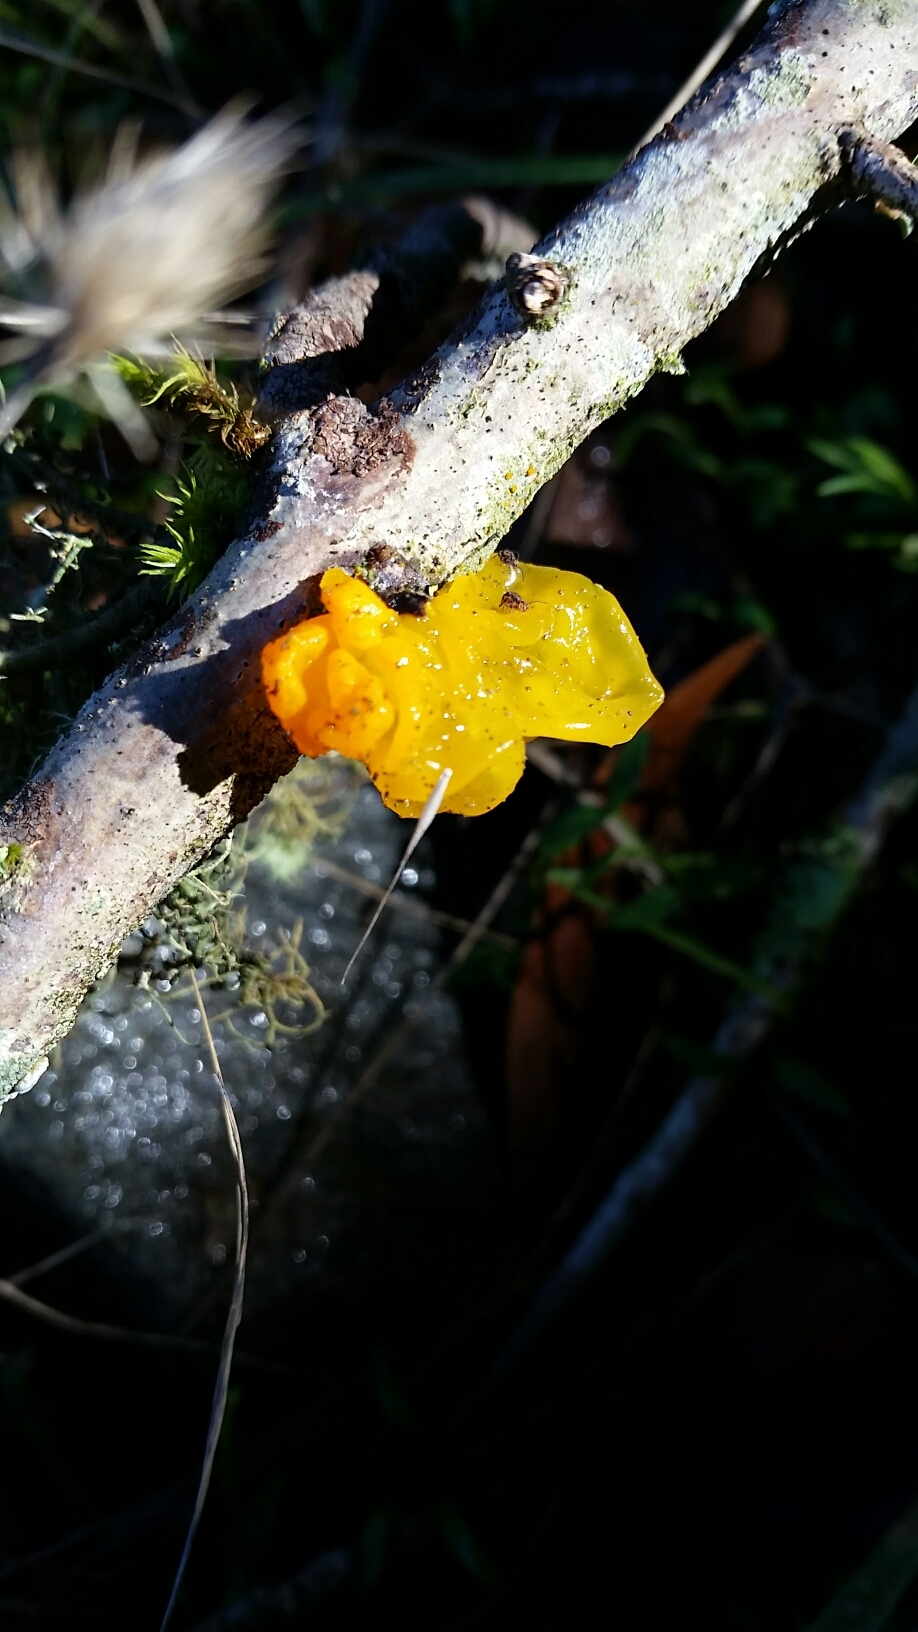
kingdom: Fungi
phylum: Basidiomycota
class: Tremellomycetes
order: Tremellales
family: Tremellaceae
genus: Tremella
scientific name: Tremella mesenterica
